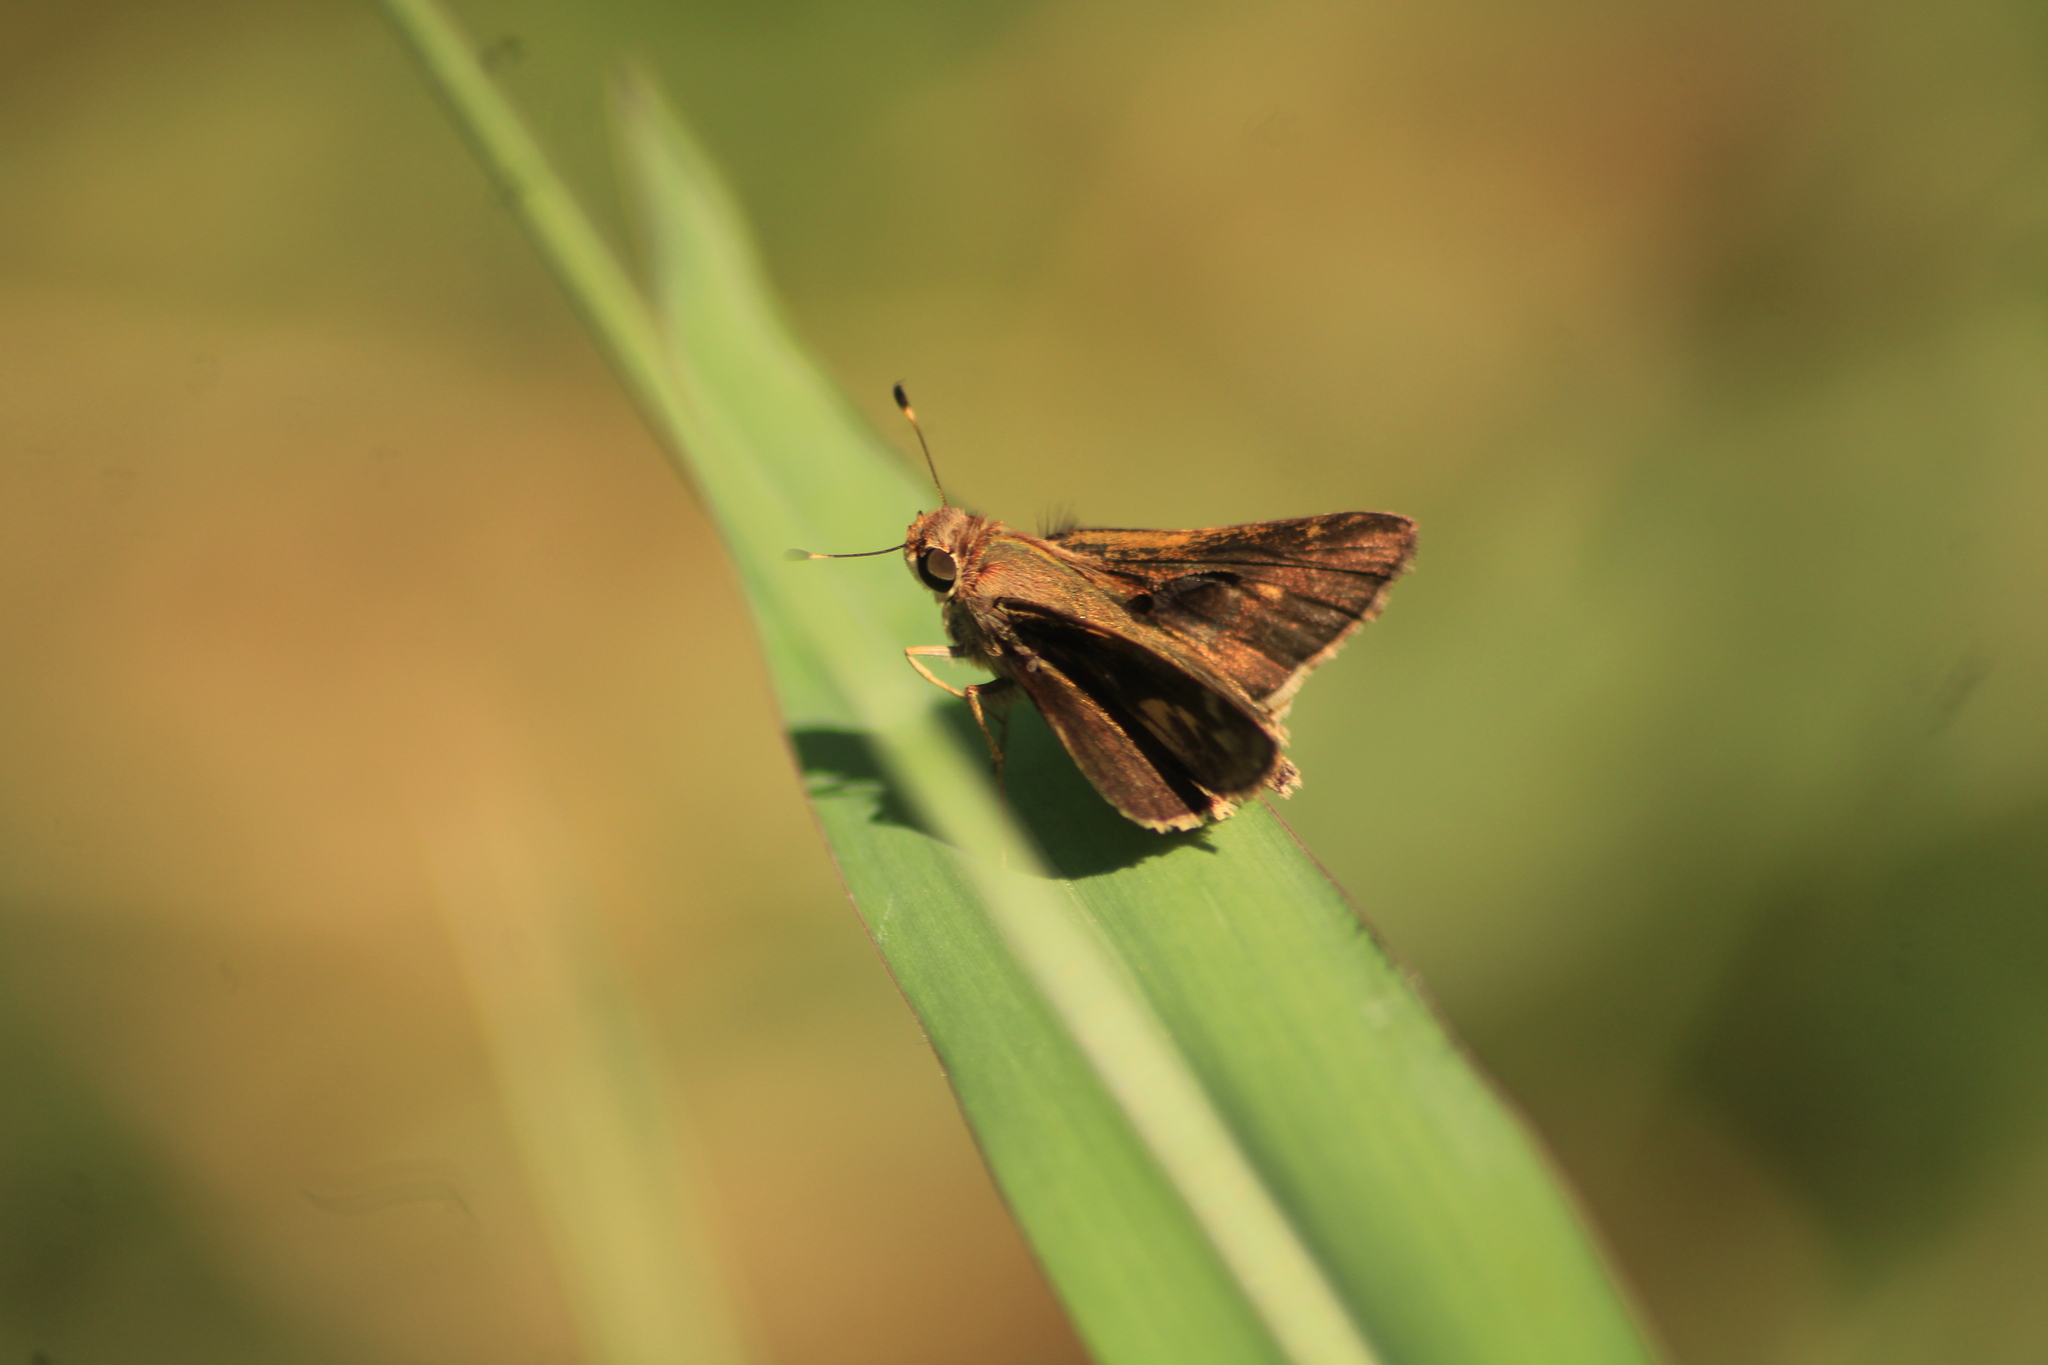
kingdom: Animalia
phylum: Arthropoda
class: Insecta
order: Lepidoptera
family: Hesperiidae
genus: Pompeius
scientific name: Pompeius pompeius
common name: Pompeius skipper
